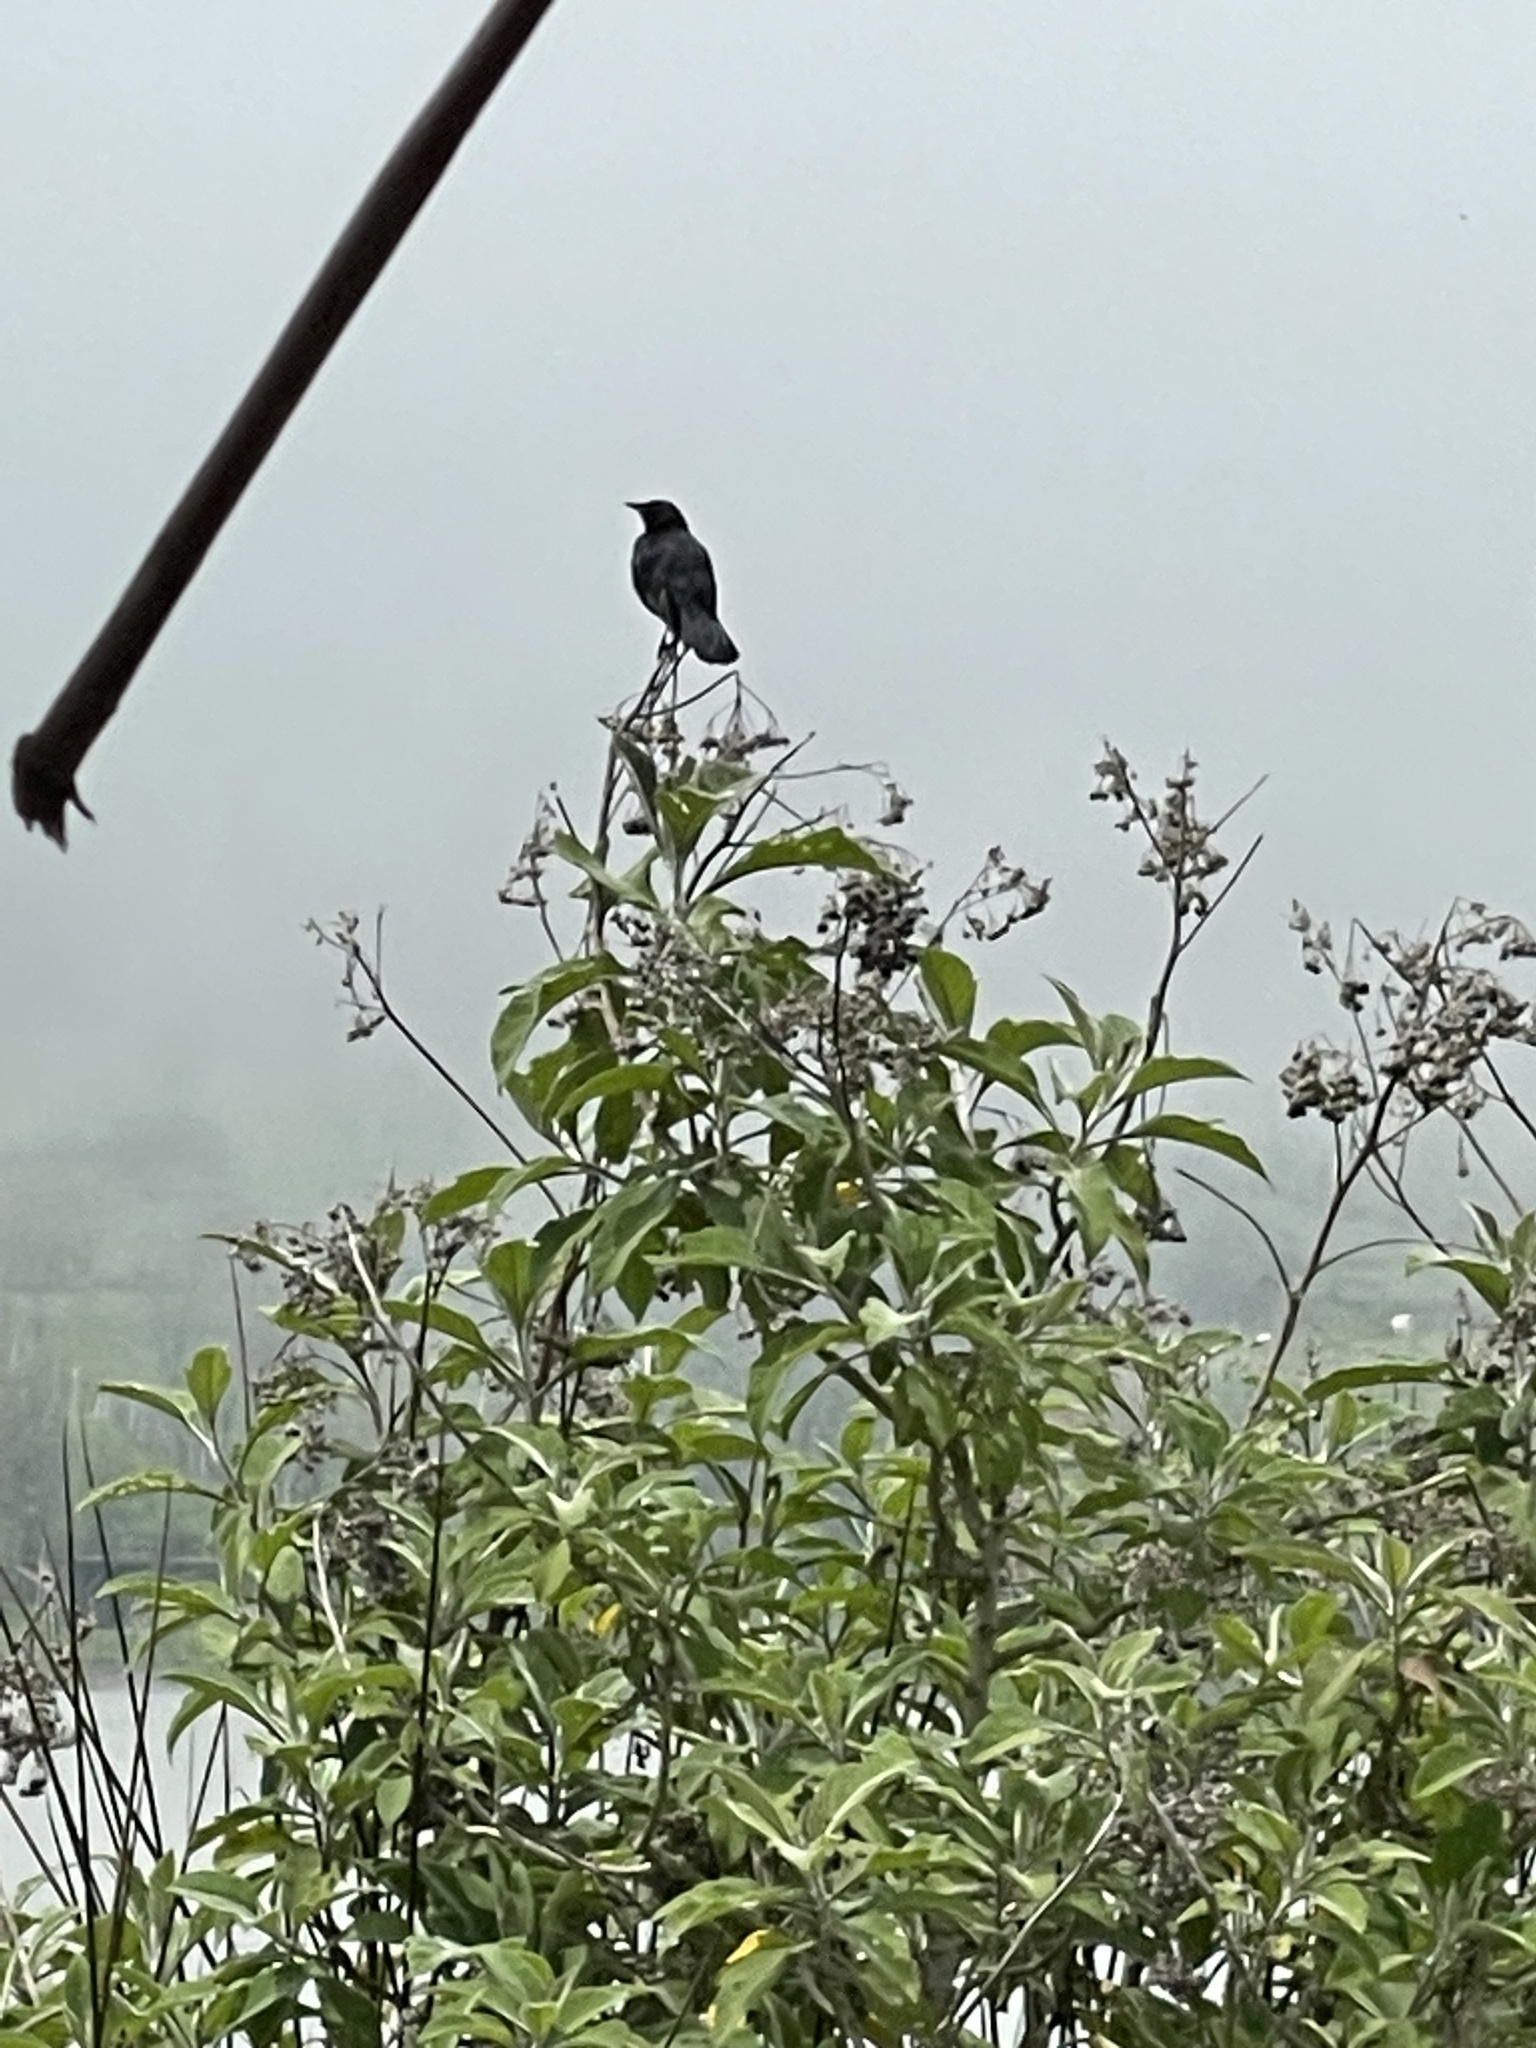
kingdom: Animalia
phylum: Chordata
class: Aves
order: Passeriformes
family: Icteridae
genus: Dives
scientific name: Dives warczewiczi
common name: Scrub blackbird
